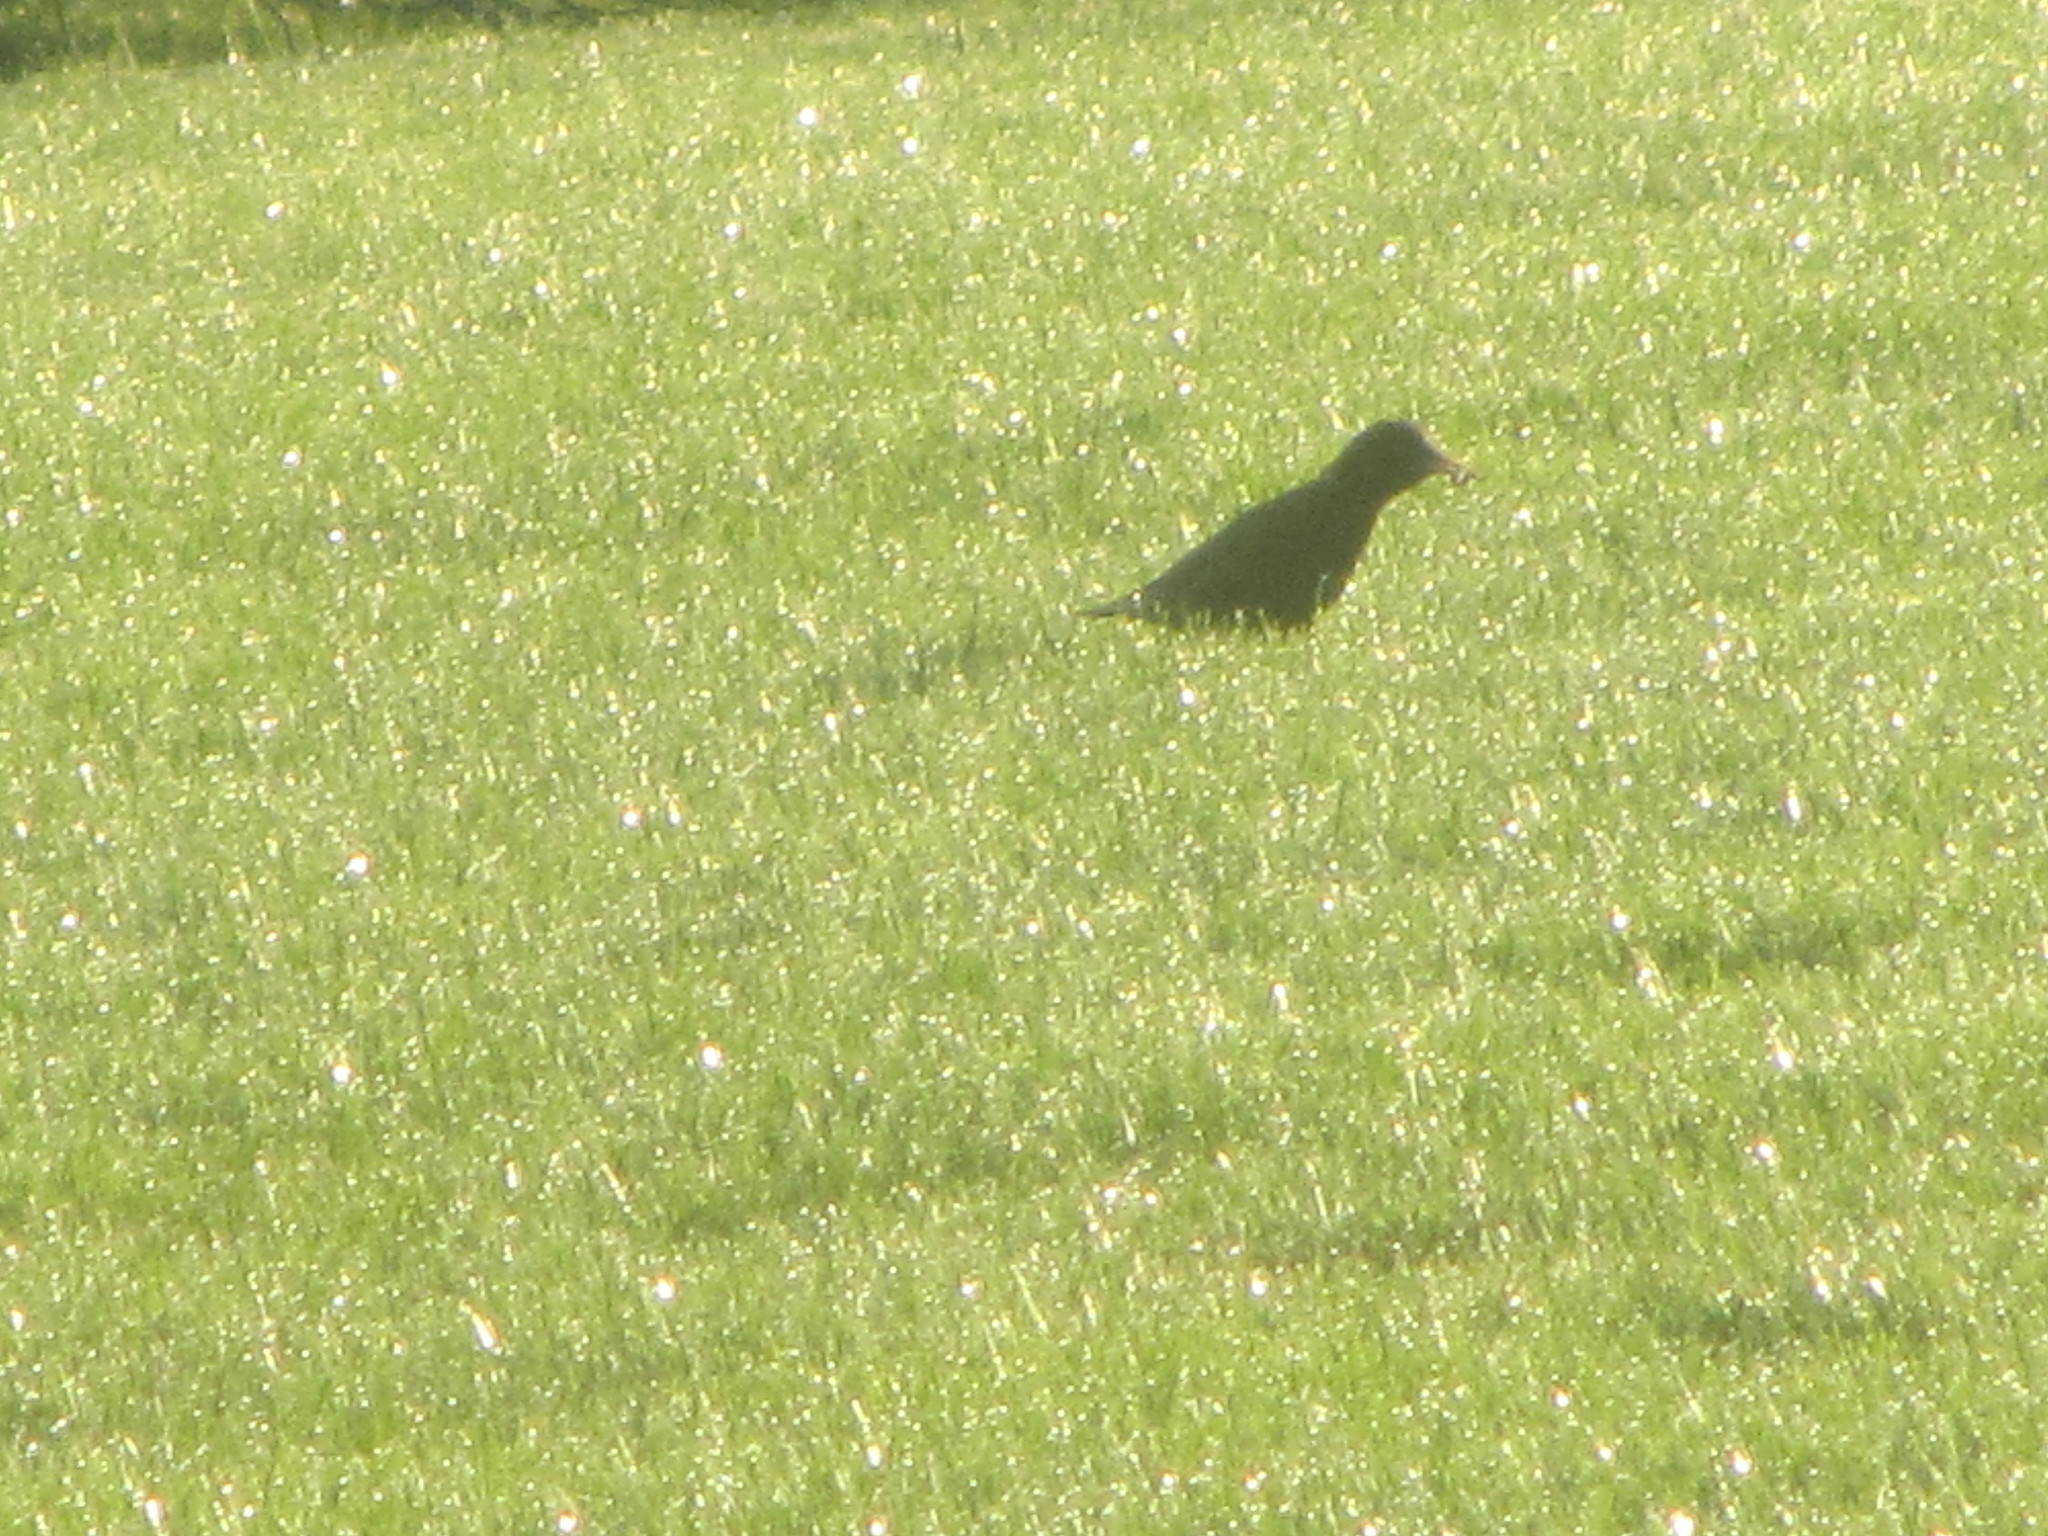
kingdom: Animalia
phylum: Chordata
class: Aves
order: Passeriformes
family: Sturnidae
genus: Sturnus
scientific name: Sturnus vulgaris
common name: Common starling
